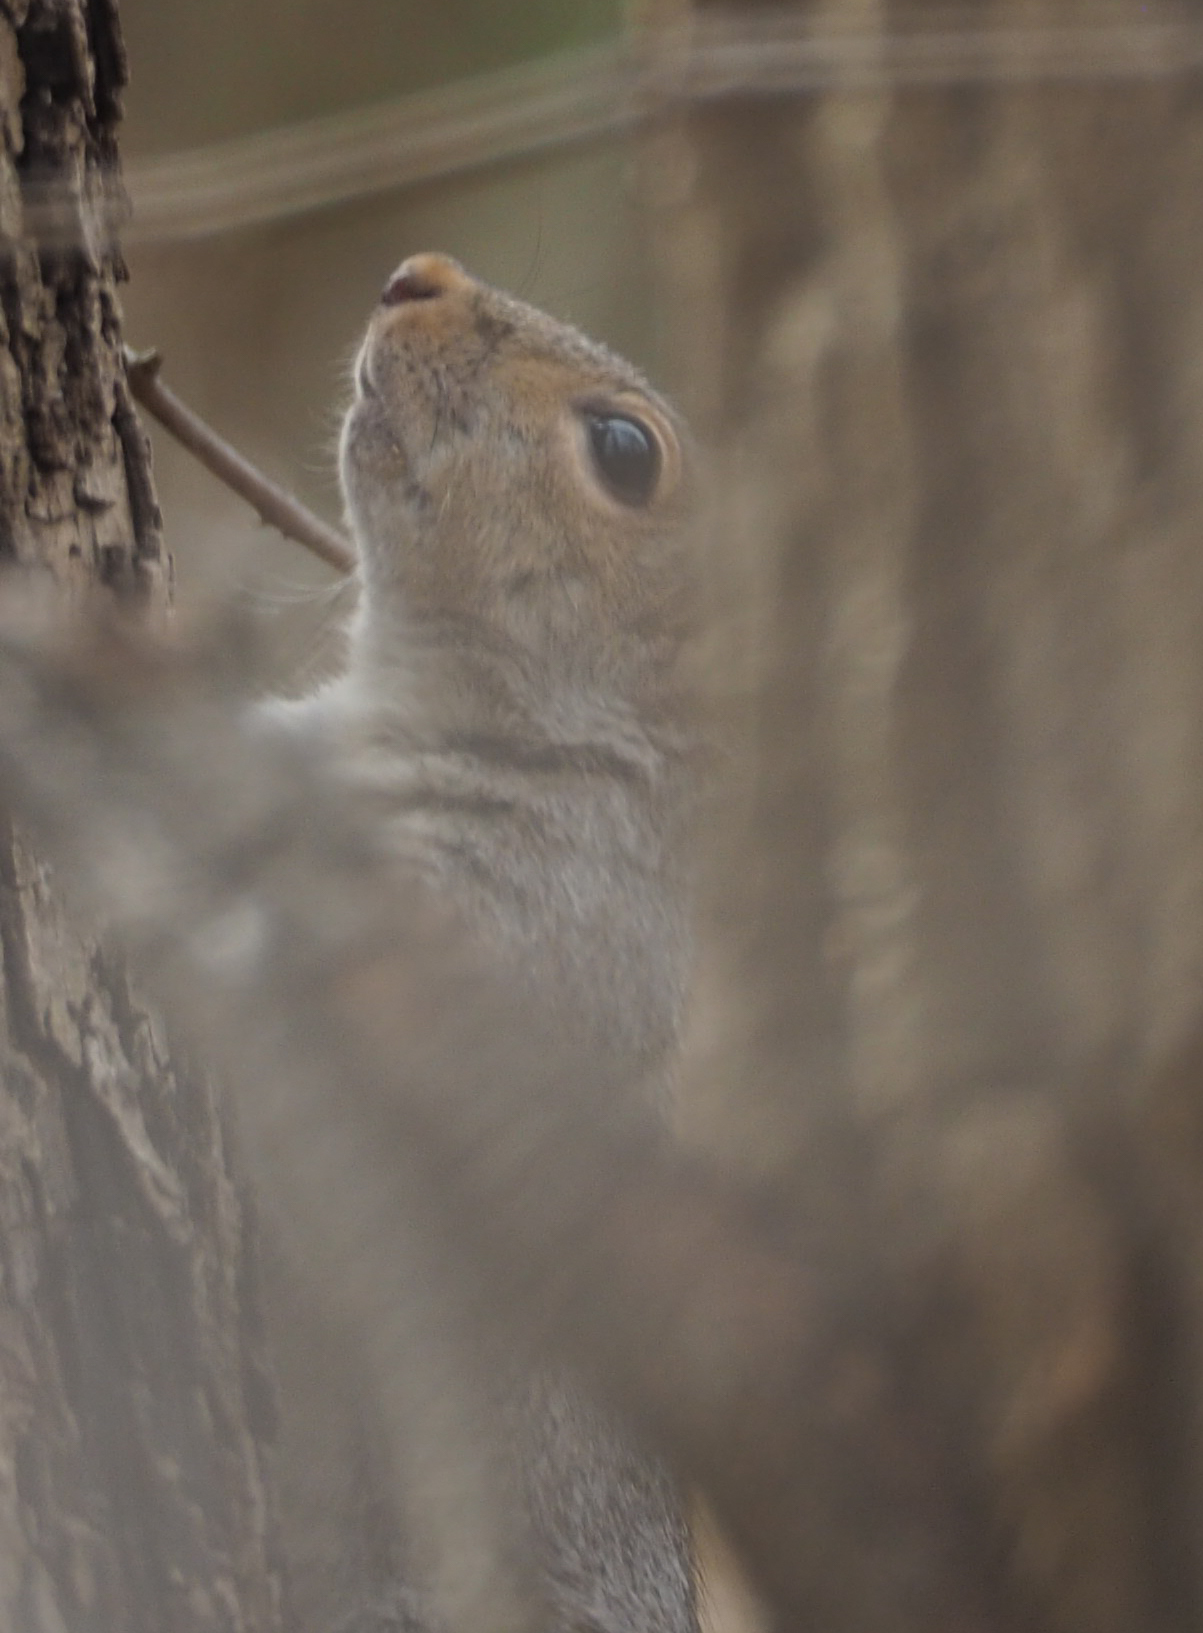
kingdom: Animalia
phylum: Chordata
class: Mammalia
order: Rodentia
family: Sciuridae
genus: Sciurus
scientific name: Sciurus carolinensis
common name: Eastern gray squirrel
